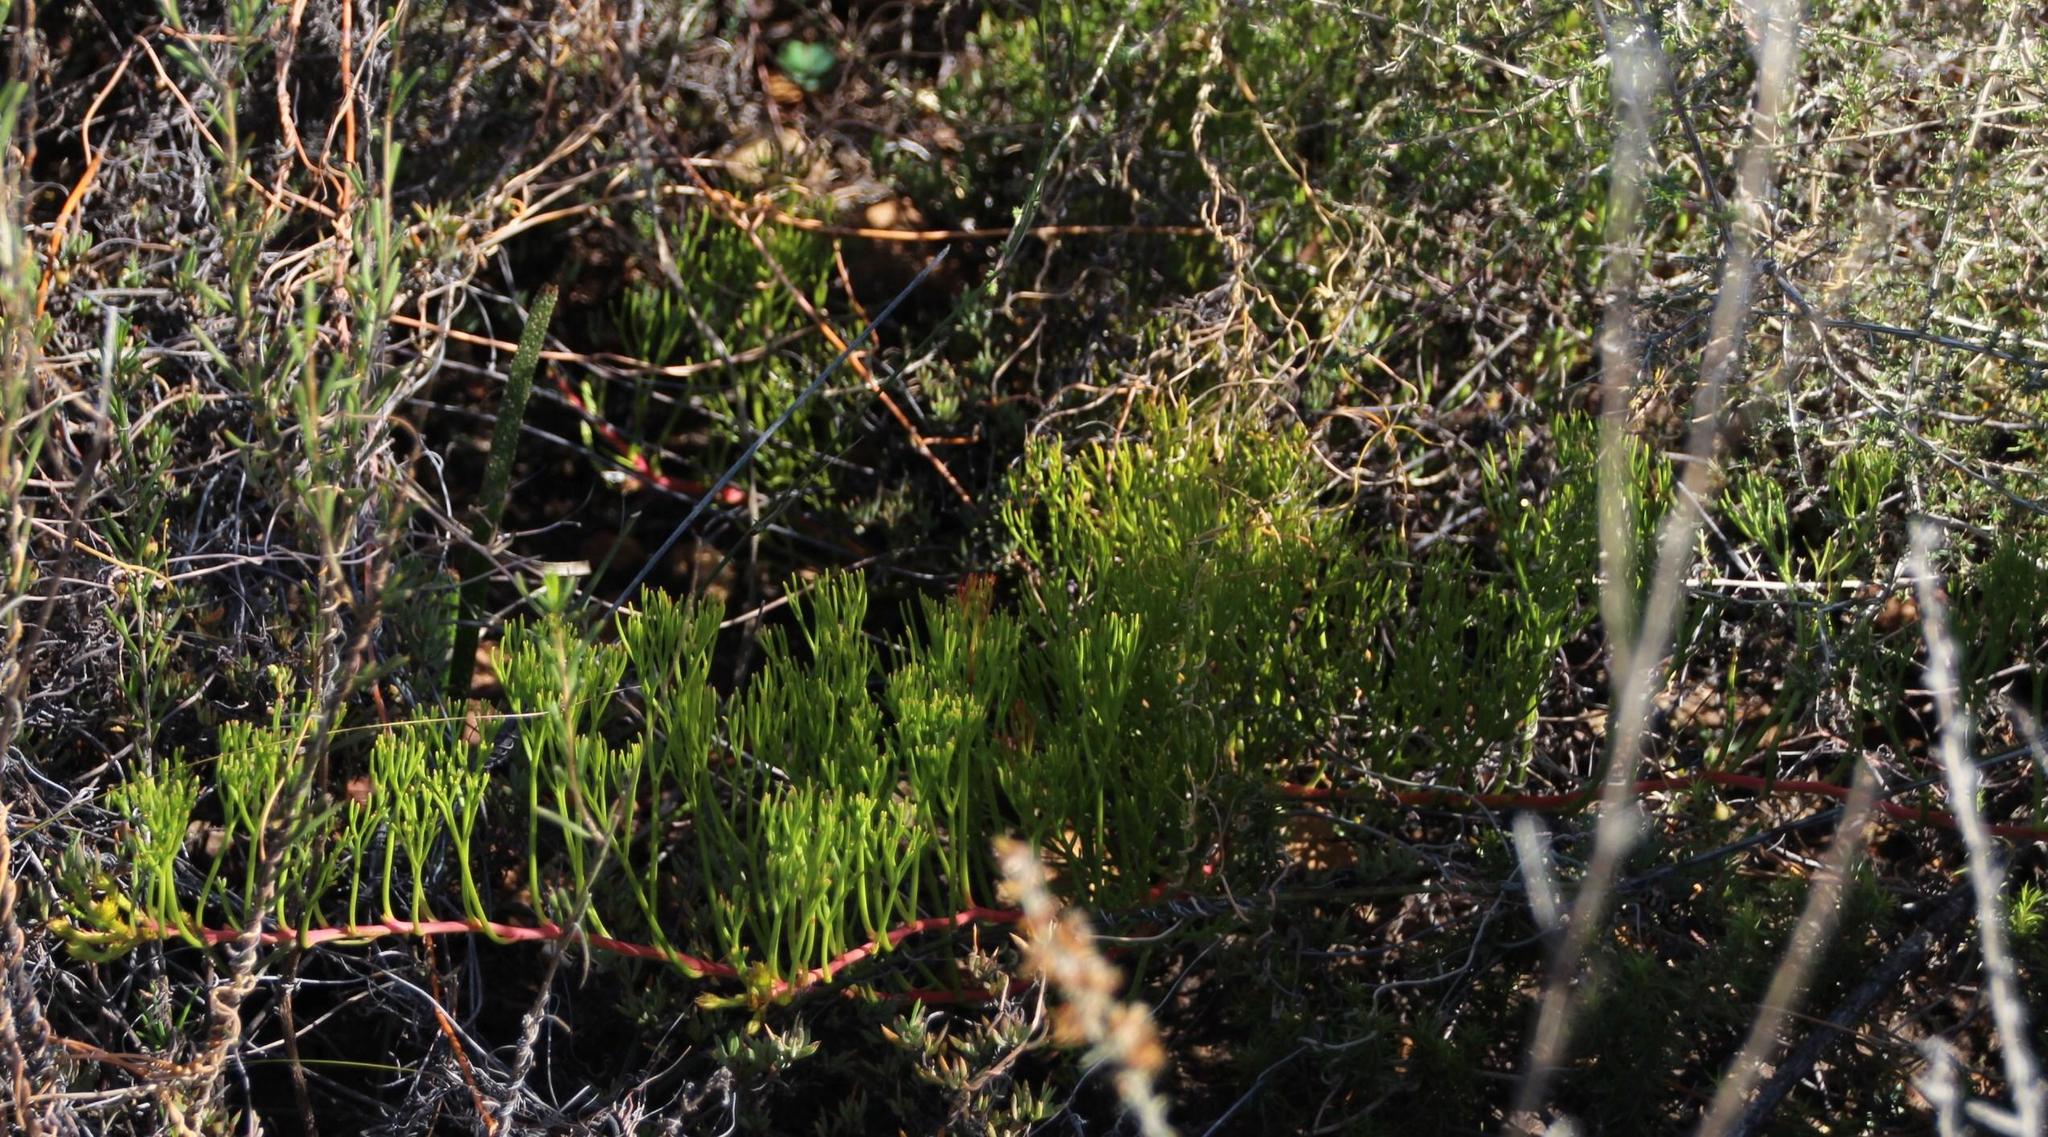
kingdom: Plantae
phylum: Tracheophyta
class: Magnoliopsida
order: Proteales
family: Proteaceae
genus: Serruria
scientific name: Serruria effusa
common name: Candelabra spiderhead
